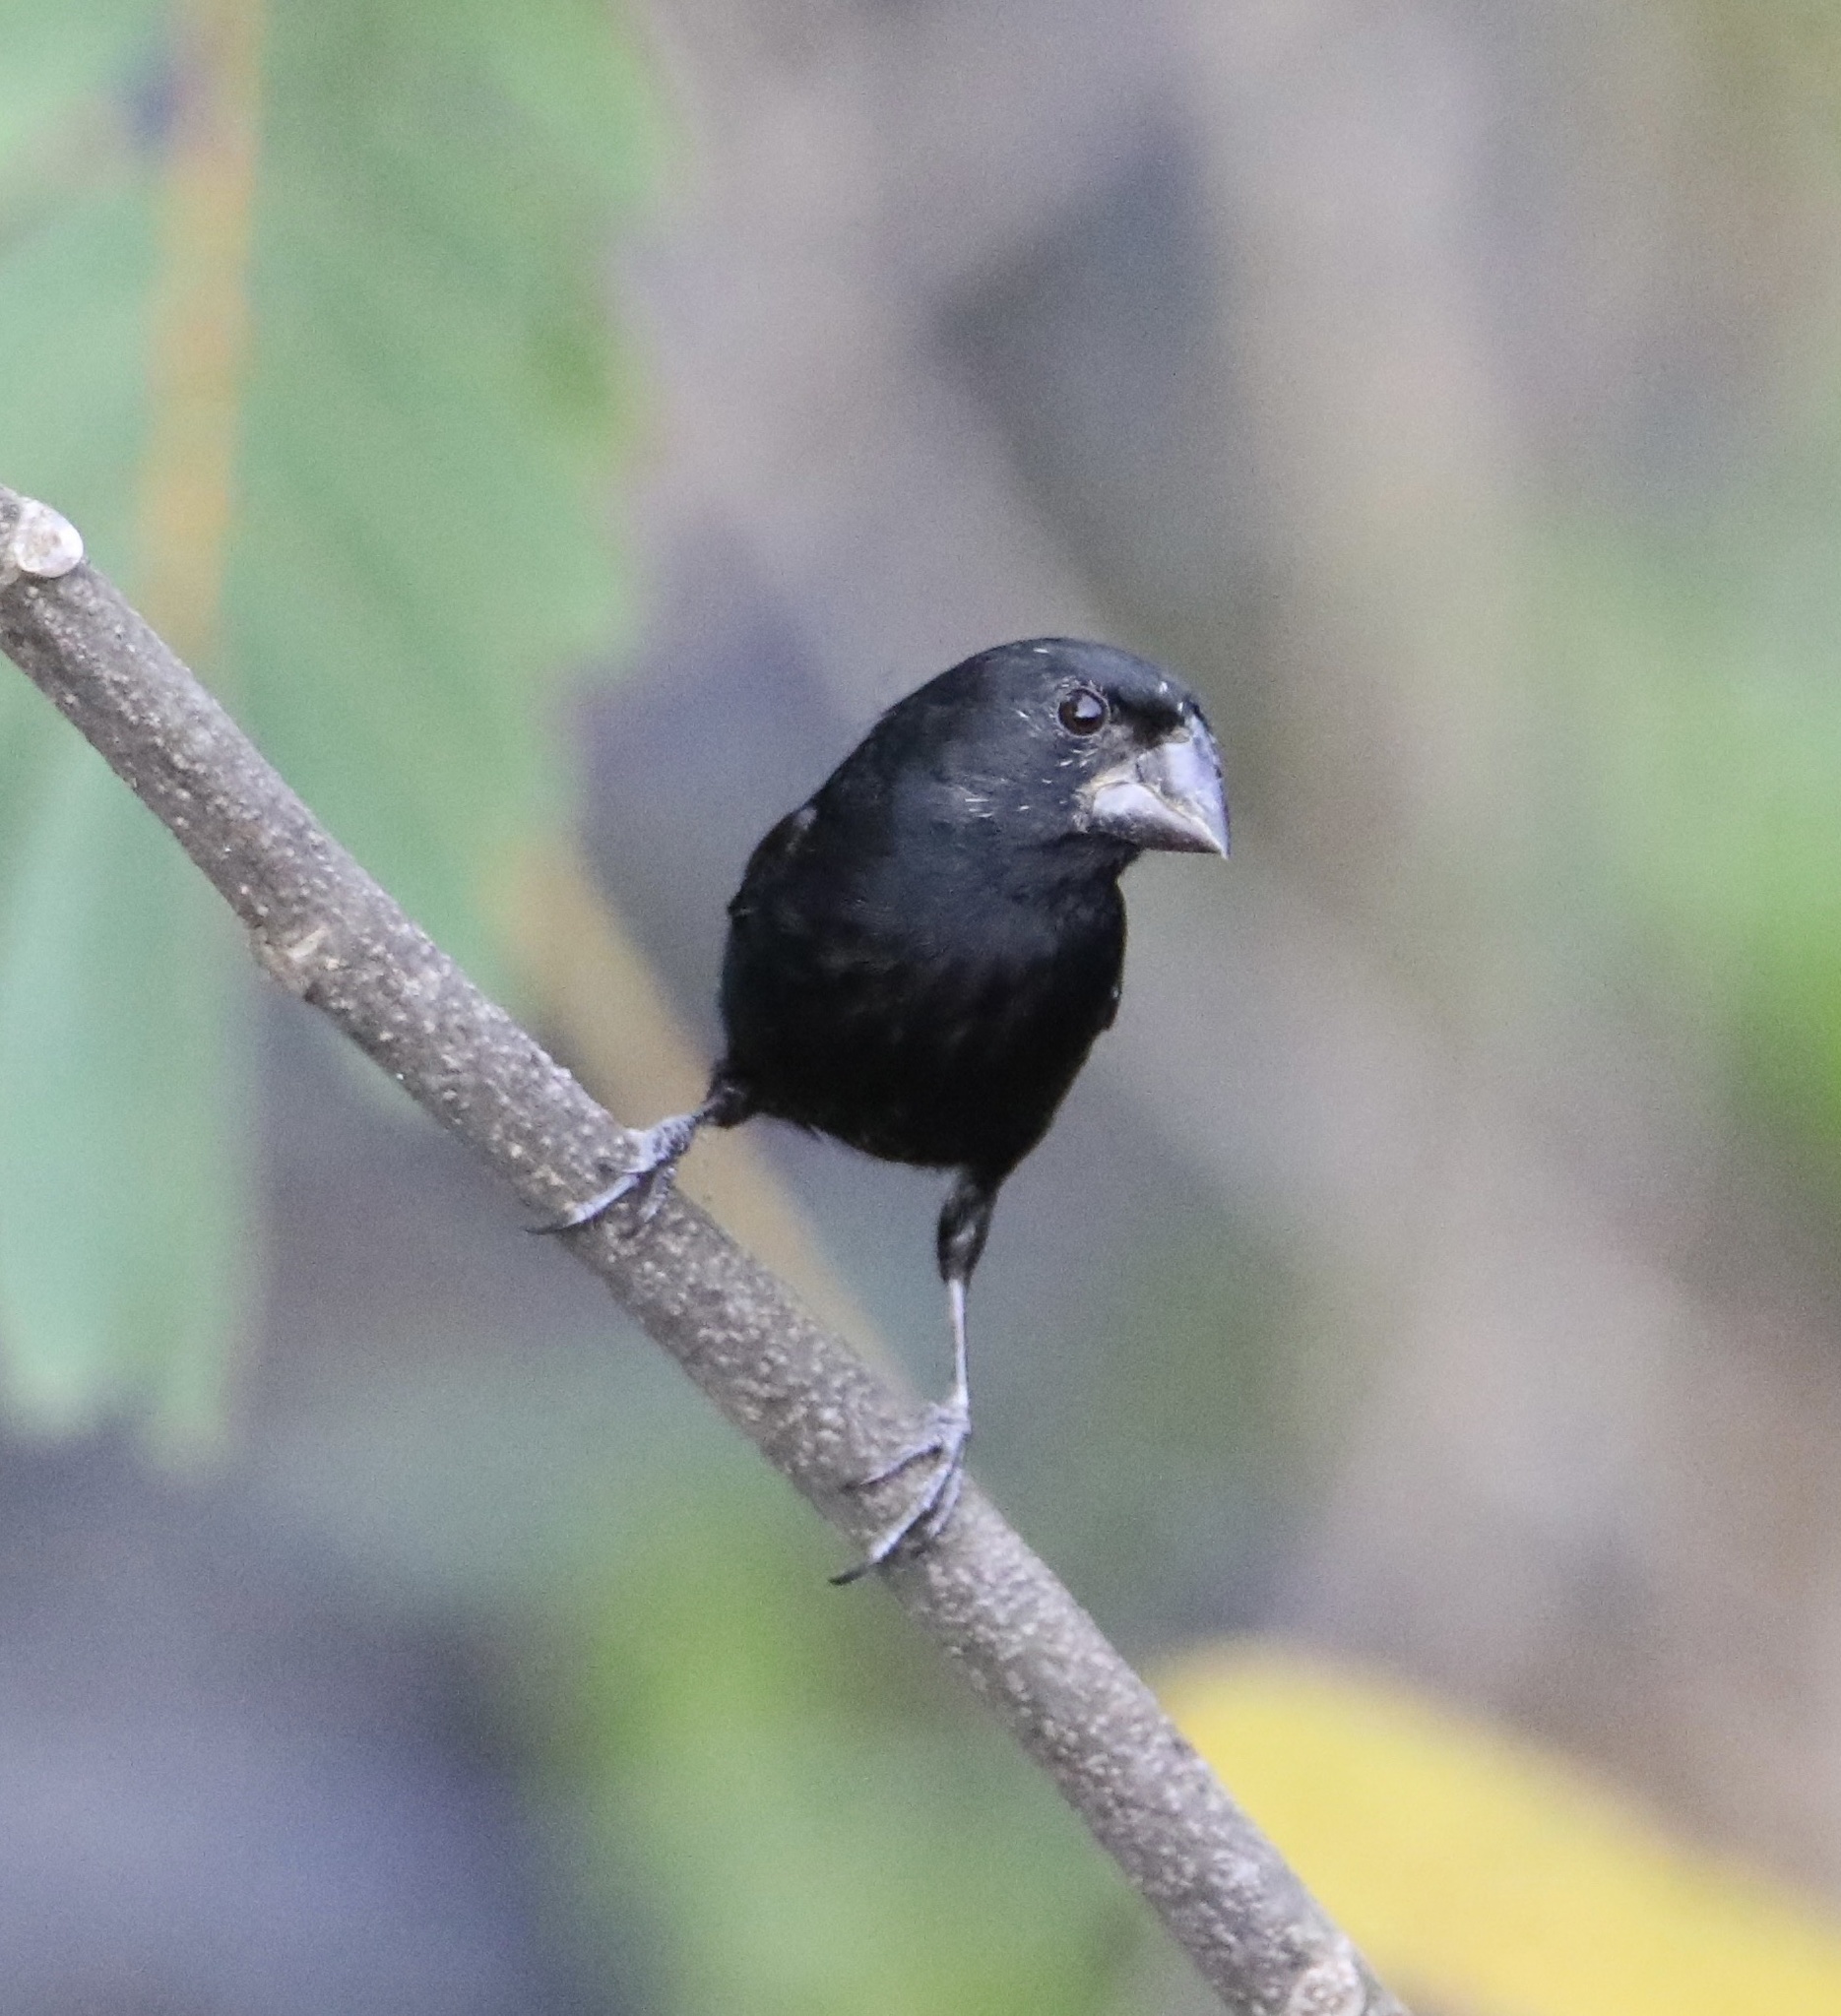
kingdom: Animalia
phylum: Chordata
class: Aves
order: Passeriformes
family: Thraupidae
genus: Sporophila
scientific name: Sporophila funerea
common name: Thick-billed seed-finch
